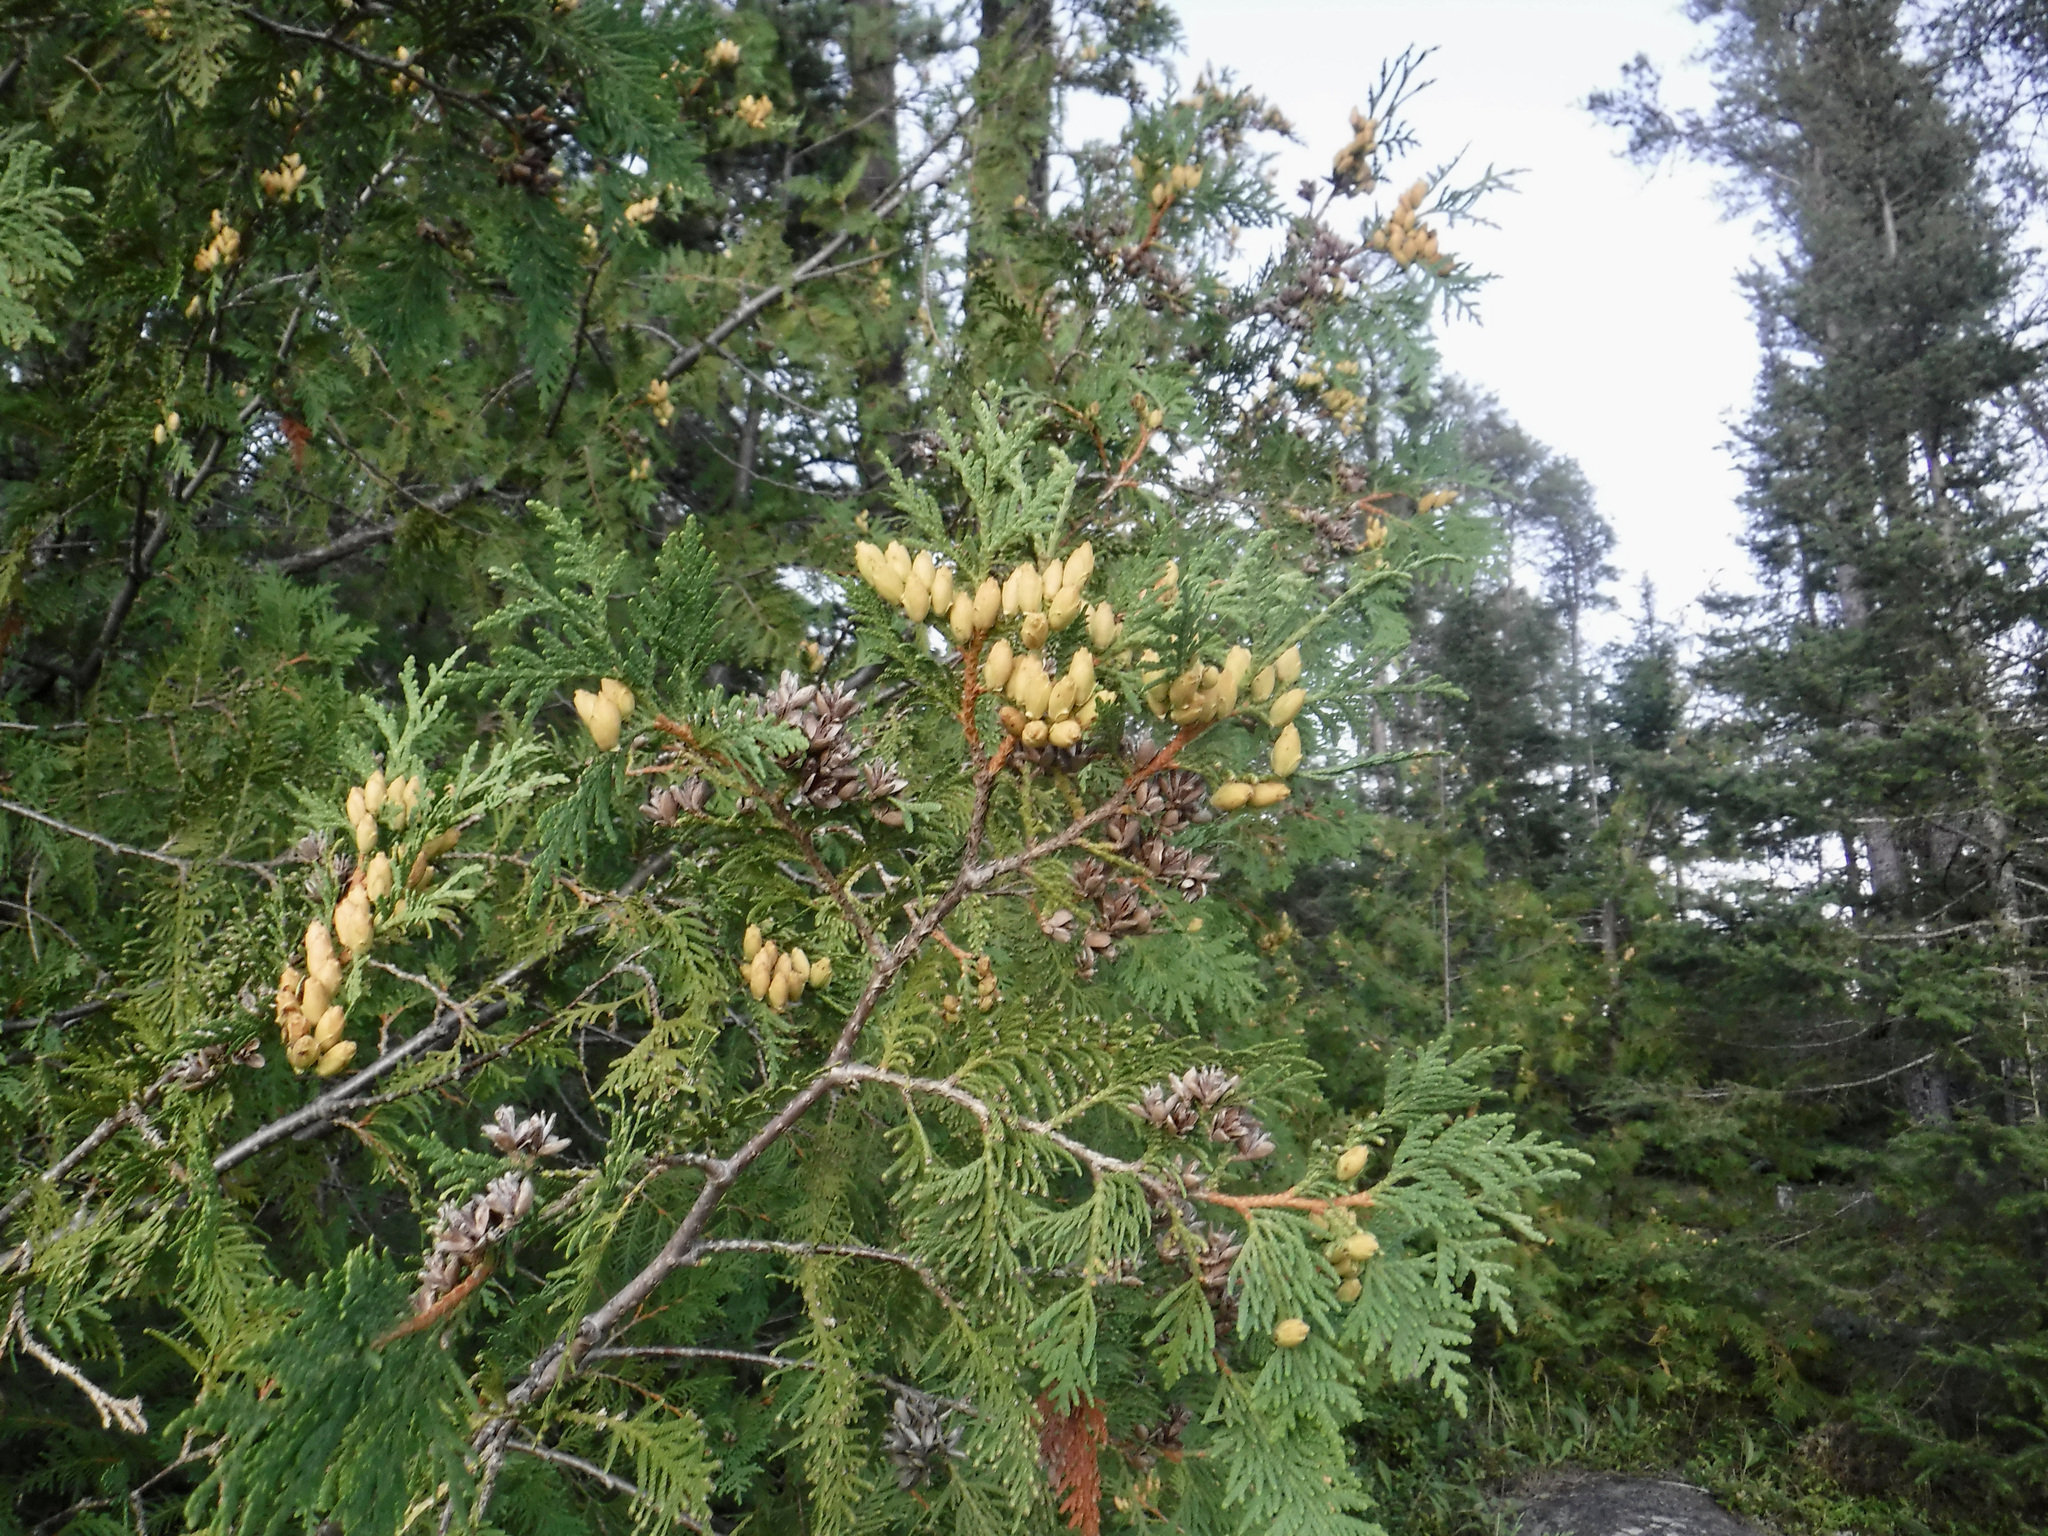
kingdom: Plantae
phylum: Tracheophyta
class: Pinopsida
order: Pinales
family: Cupressaceae
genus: Thuja
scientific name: Thuja occidentalis
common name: Northern white-cedar
